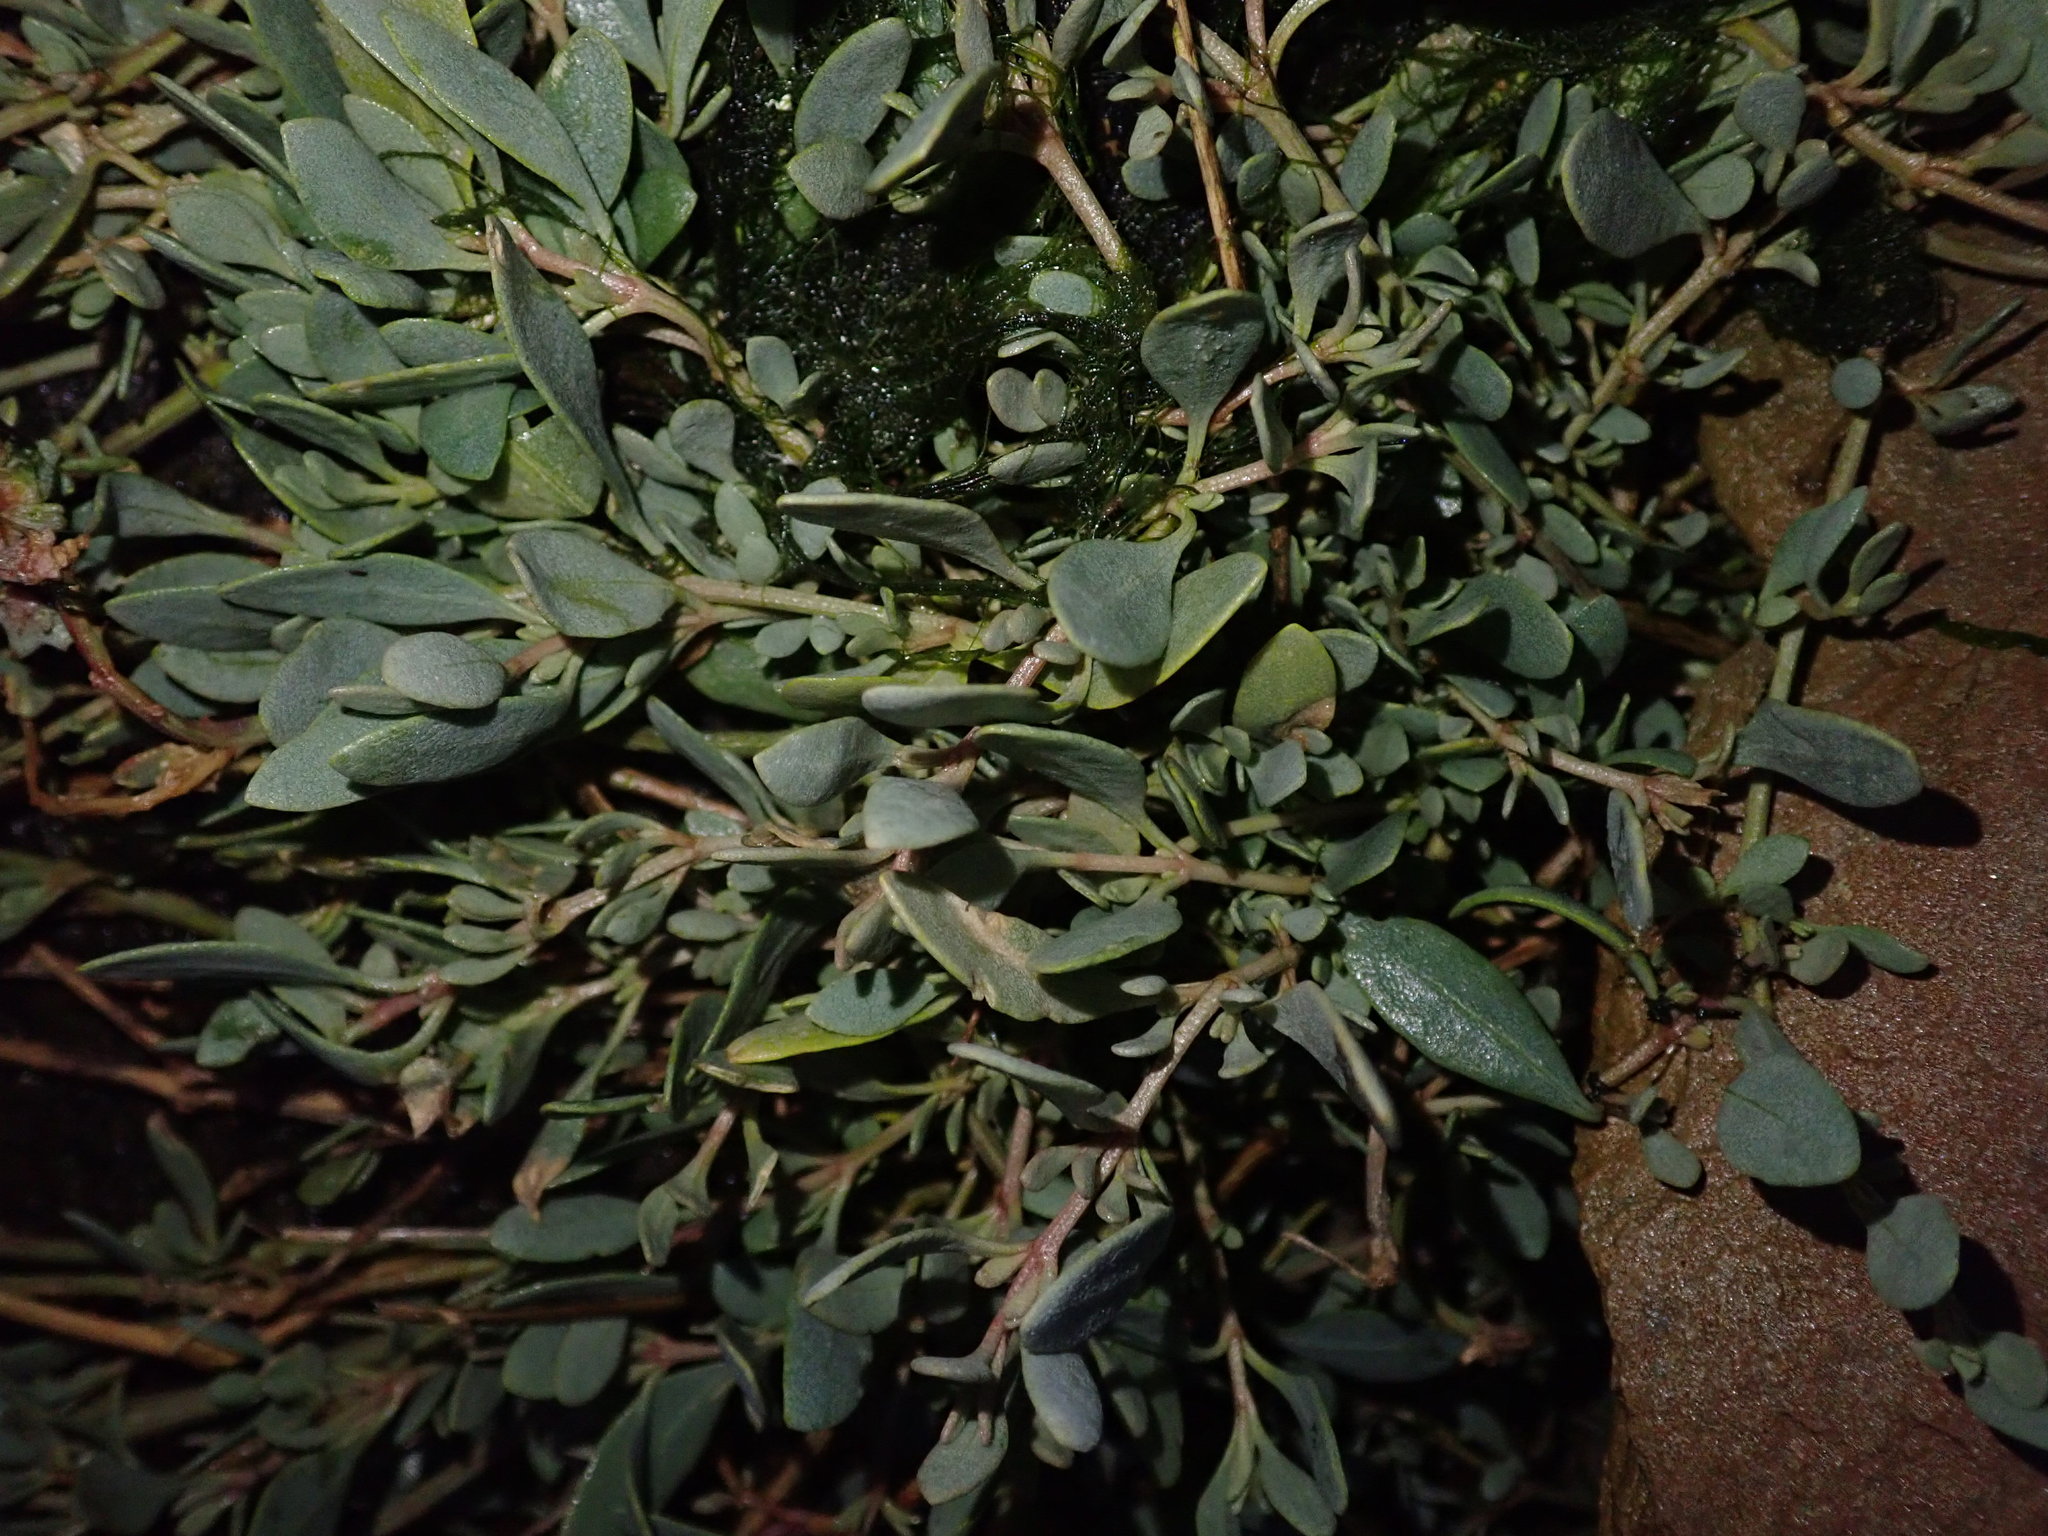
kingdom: Plantae
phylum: Tracheophyta
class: Magnoliopsida
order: Caryophyllales
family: Amaranthaceae
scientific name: Amaranthaceae
